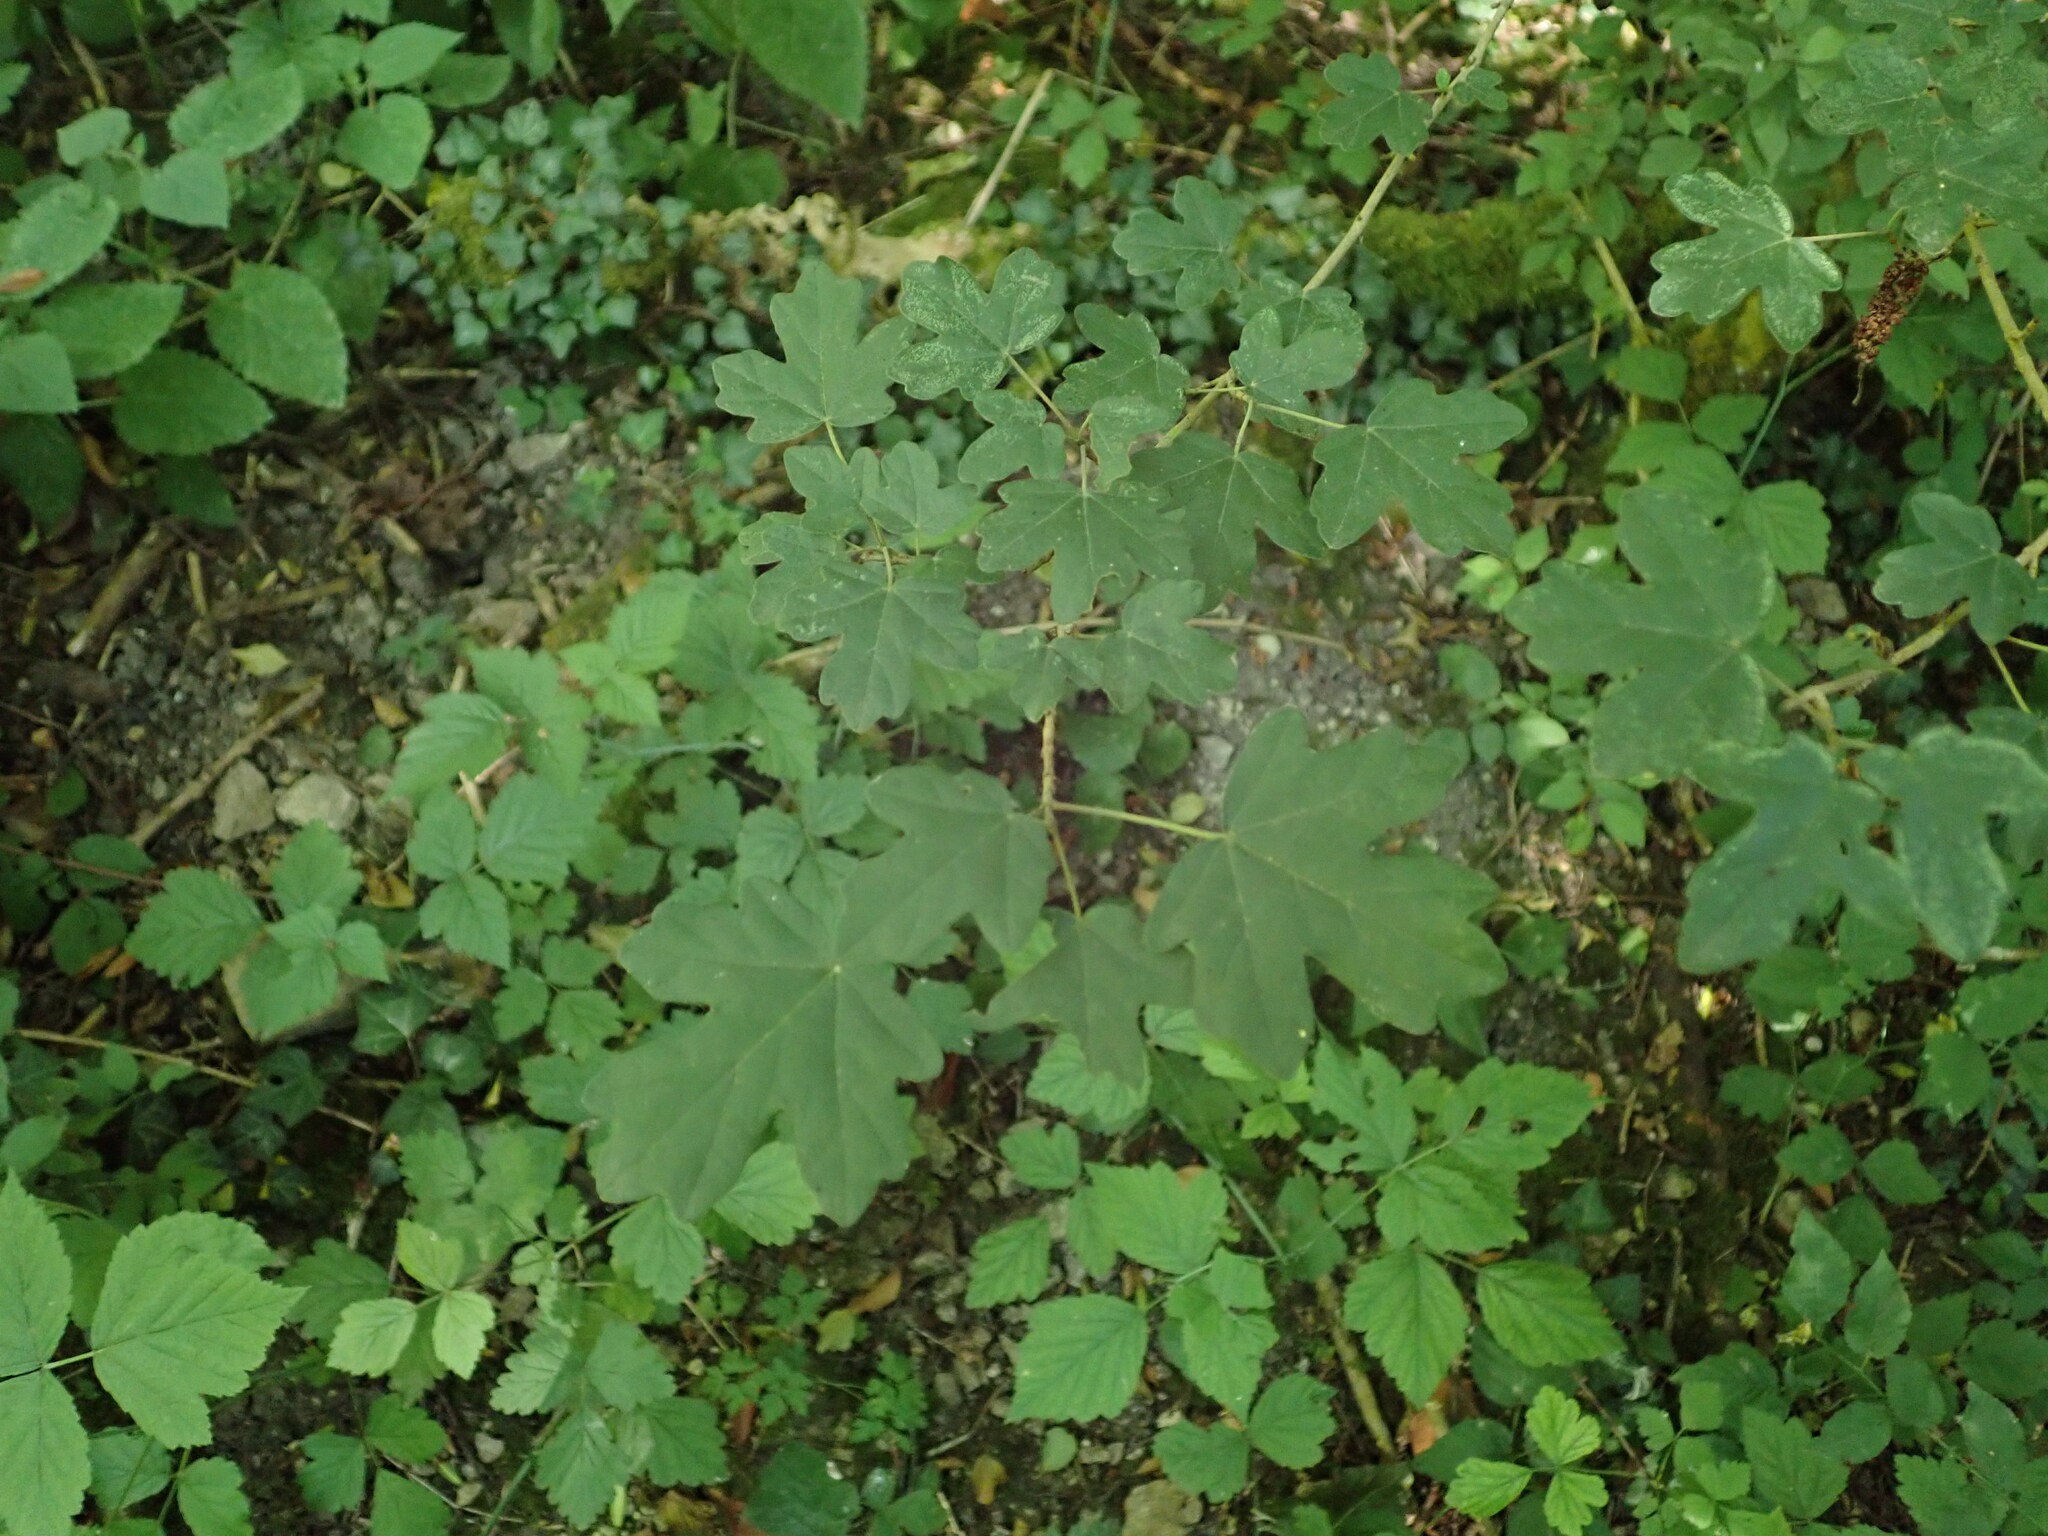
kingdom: Plantae
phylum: Tracheophyta
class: Magnoliopsida
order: Sapindales
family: Sapindaceae
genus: Acer
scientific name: Acer campestre
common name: Field maple
